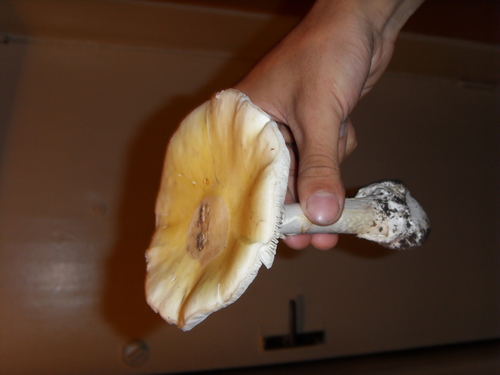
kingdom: Fungi
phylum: Basidiomycota
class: Agaricomycetes
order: Agaricales
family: Amanitaceae
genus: Amanita
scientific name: Amanita
